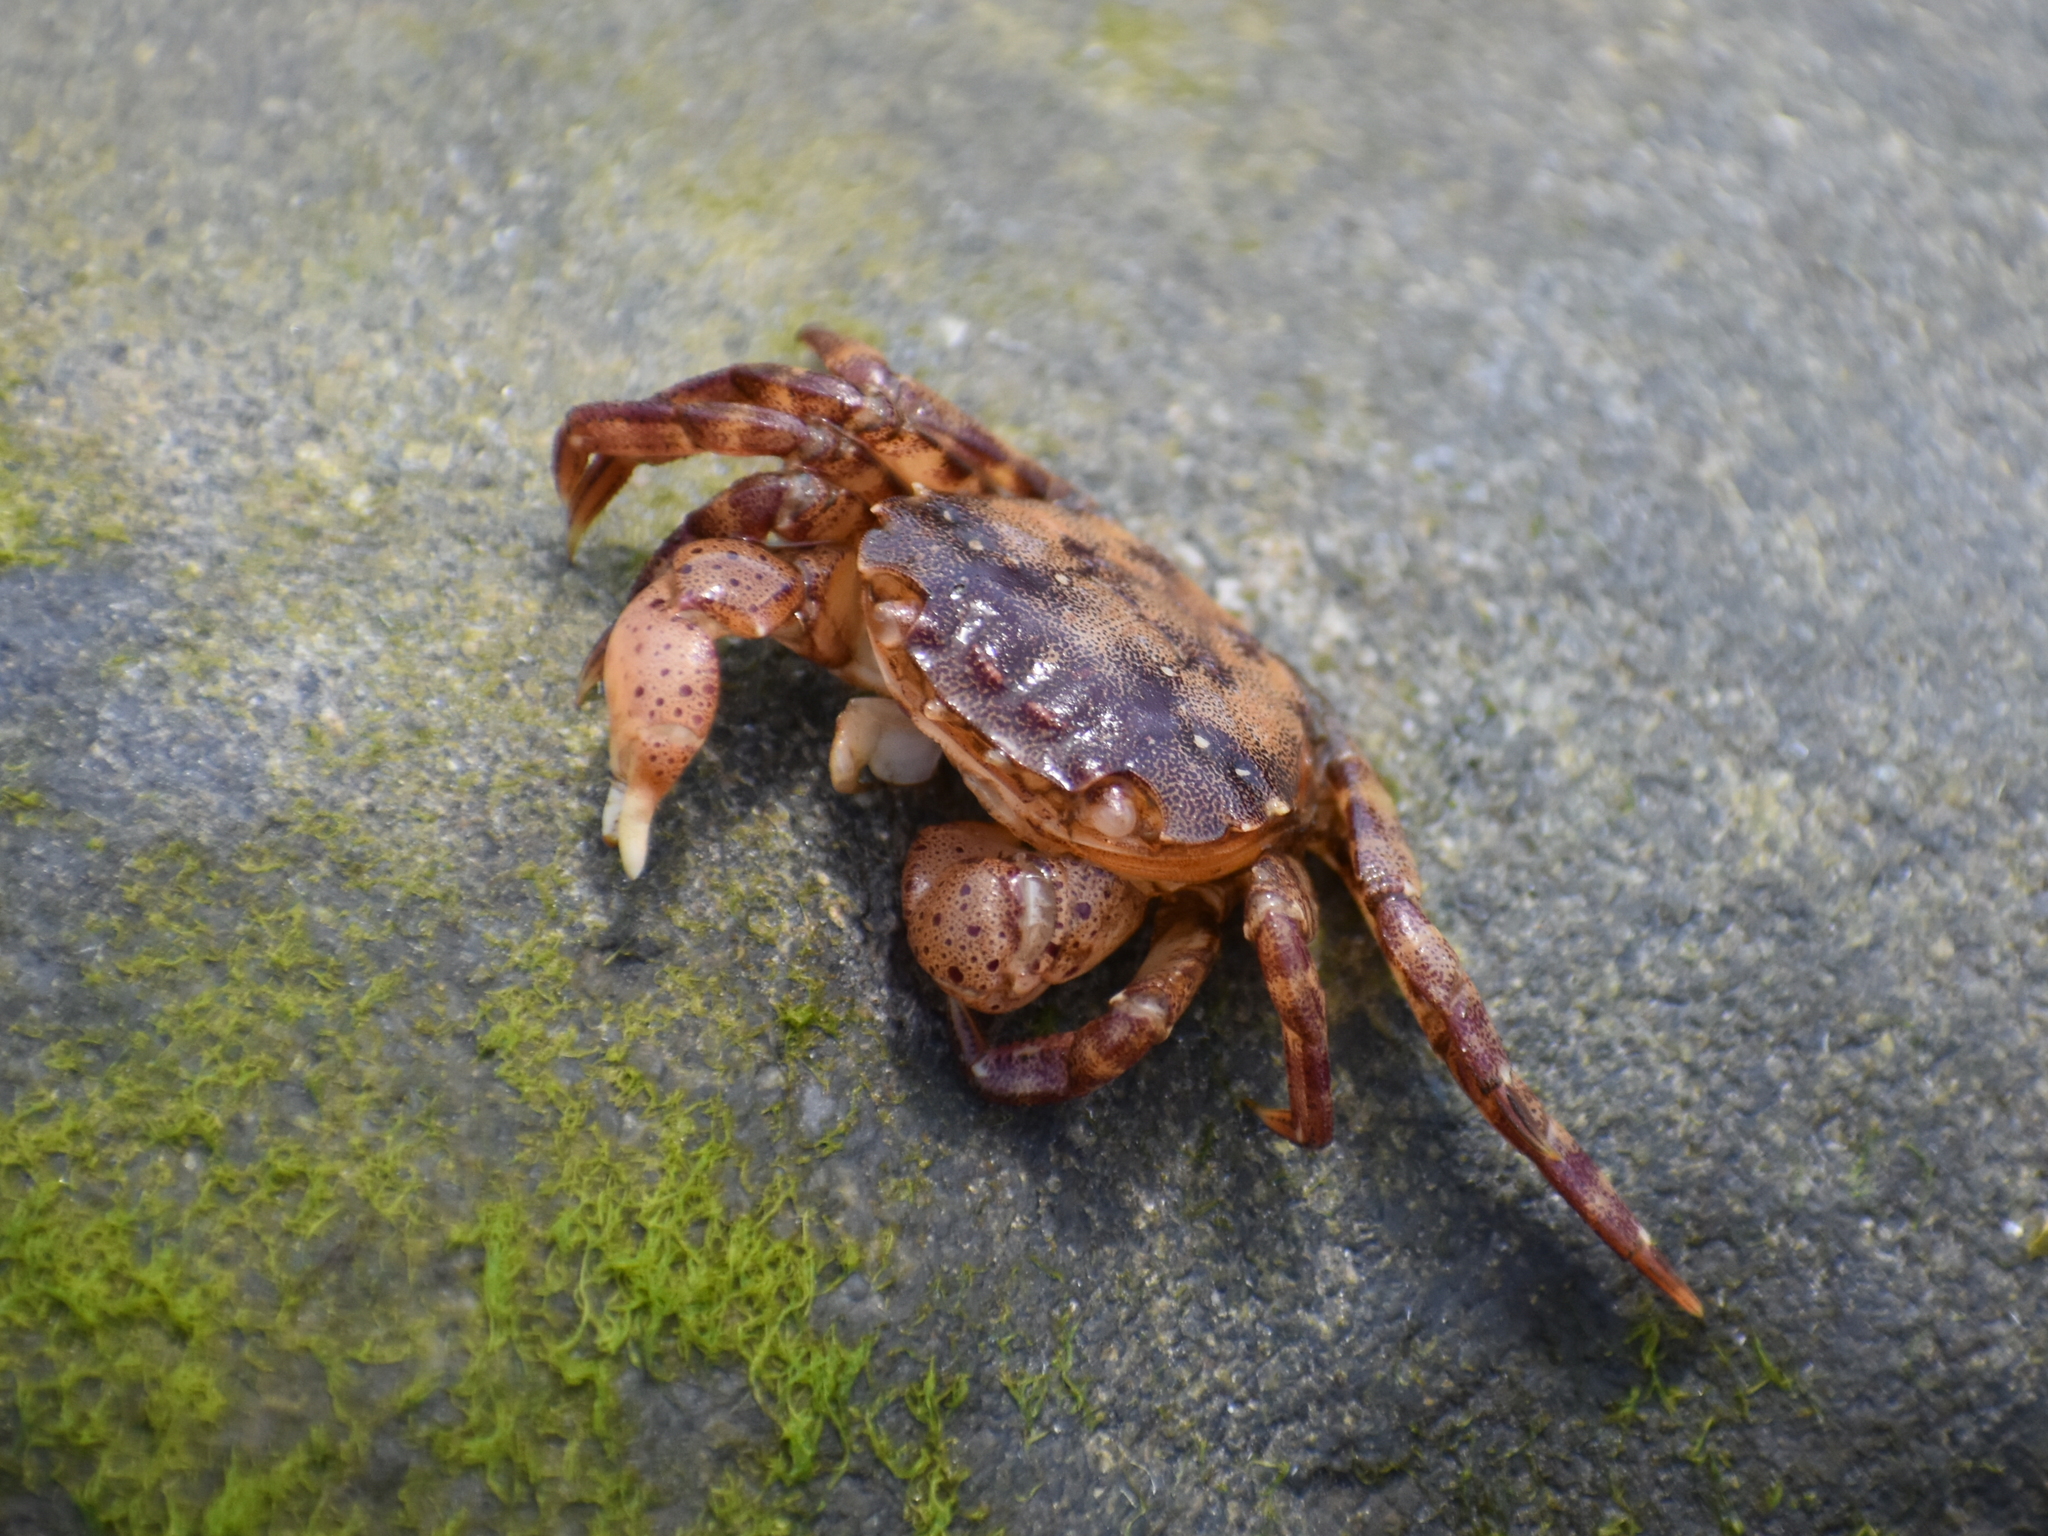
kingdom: Animalia
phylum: Arthropoda
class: Malacostraca
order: Decapoda
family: Varunidae
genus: Hemigrapsus
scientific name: Hemigrapsus sanguineus
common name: Asian shore crab
